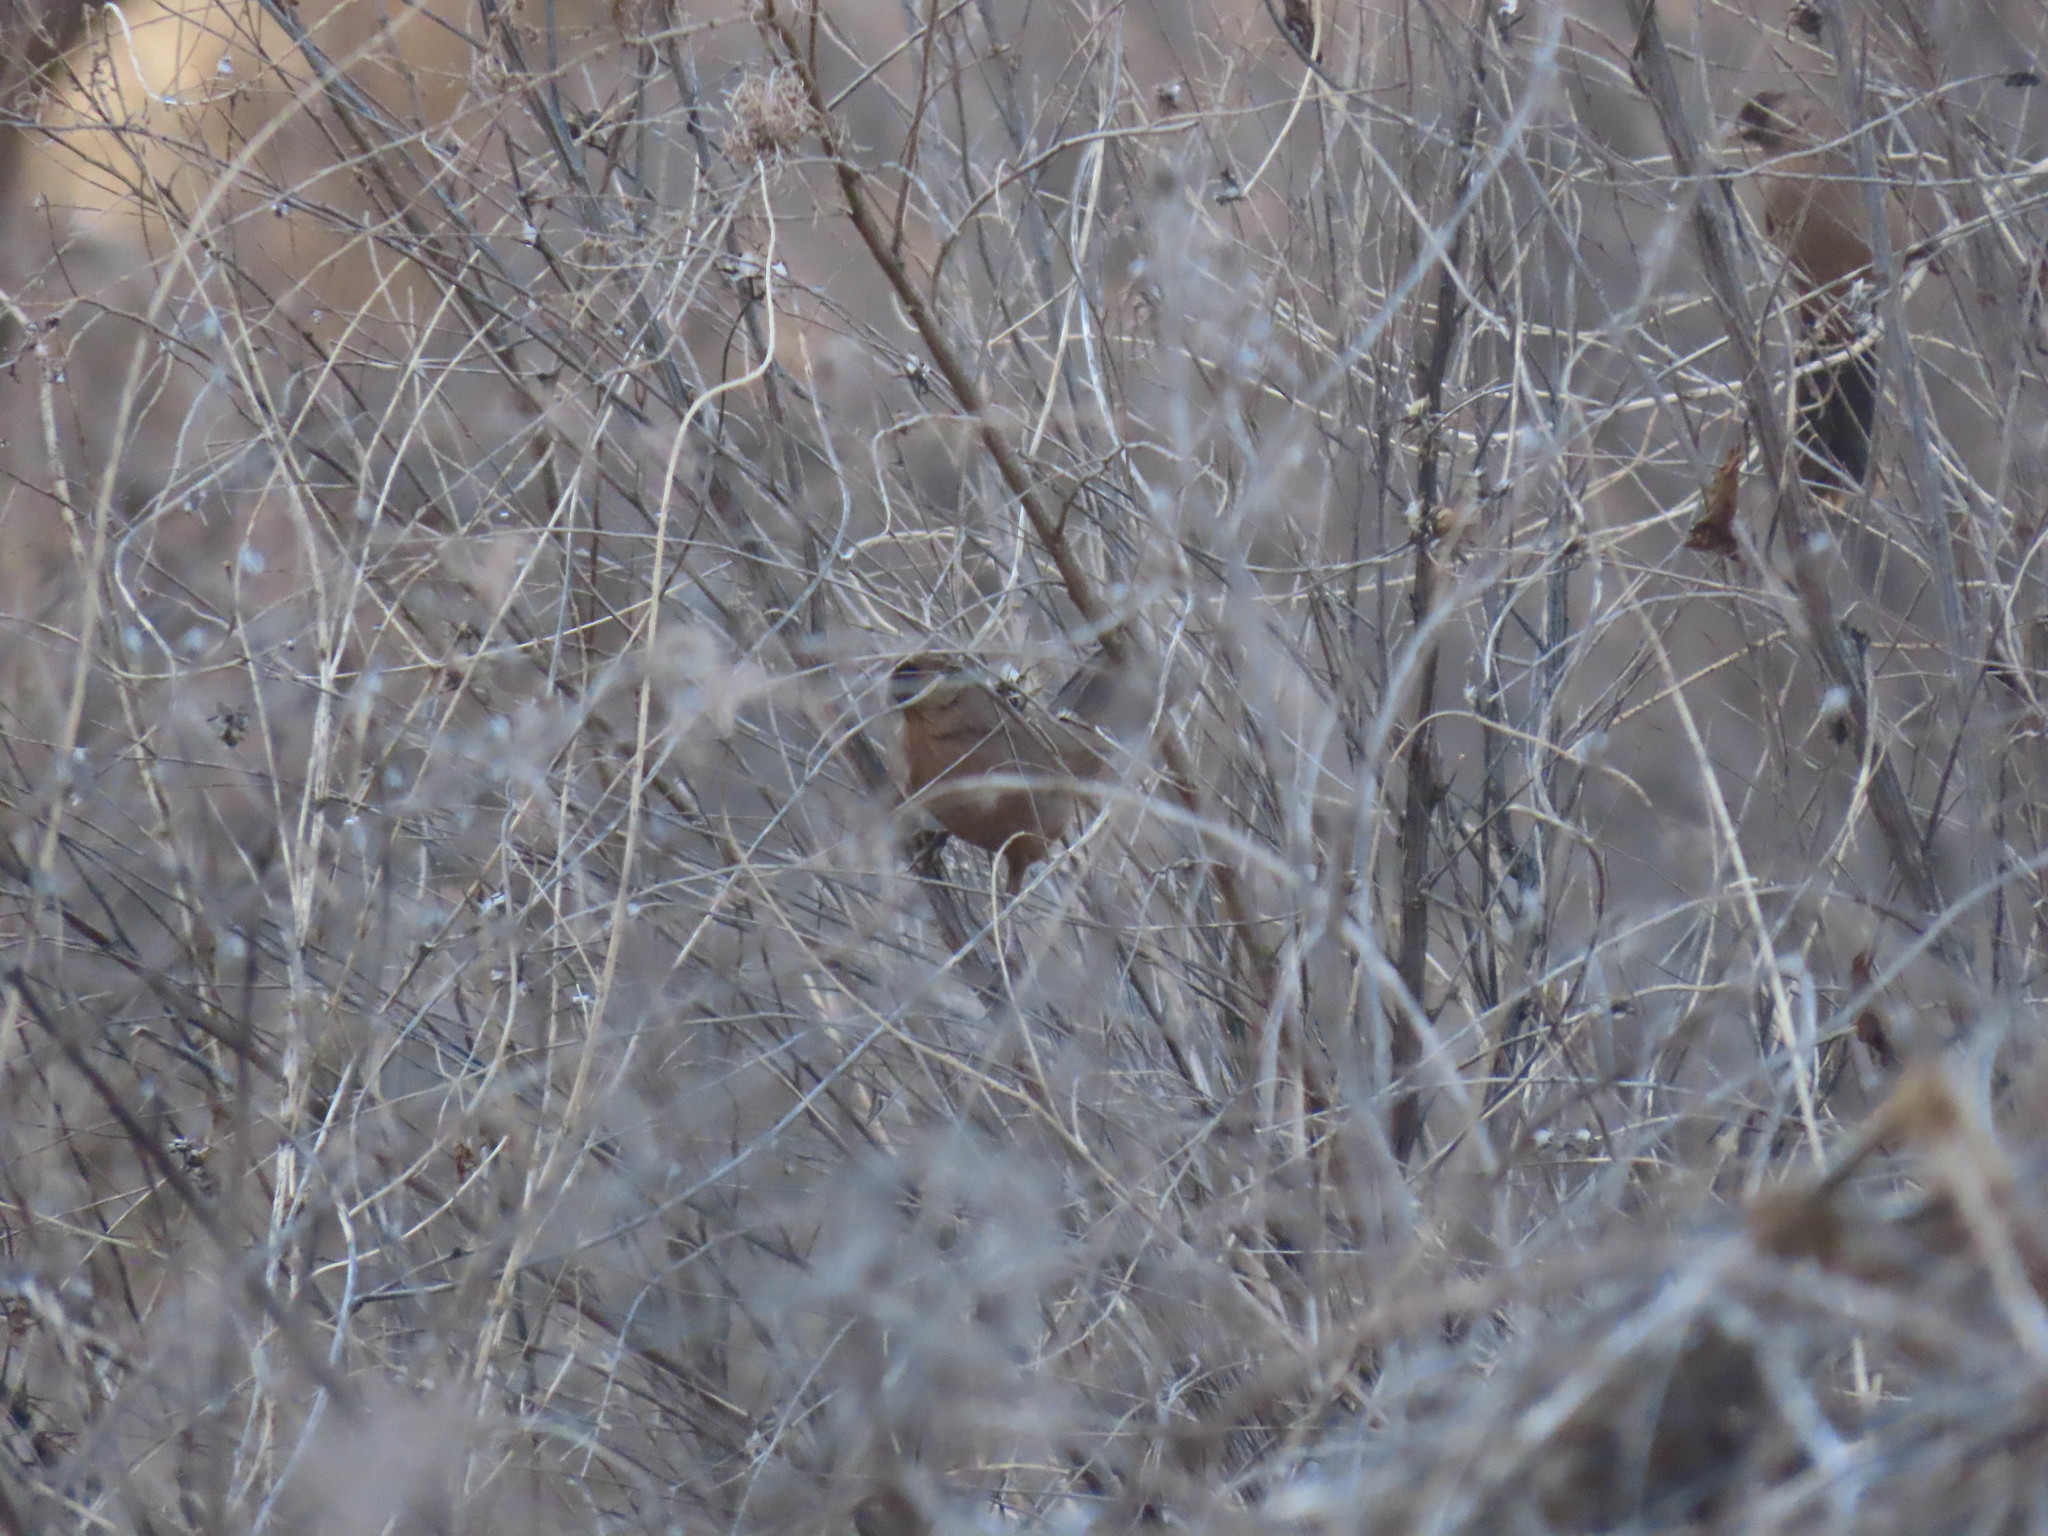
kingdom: Animalia
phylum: Chordata
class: Aves
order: Passeriformes
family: Passerellidae
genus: Melozone
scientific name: Melozone aberti
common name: Abert's towhee
